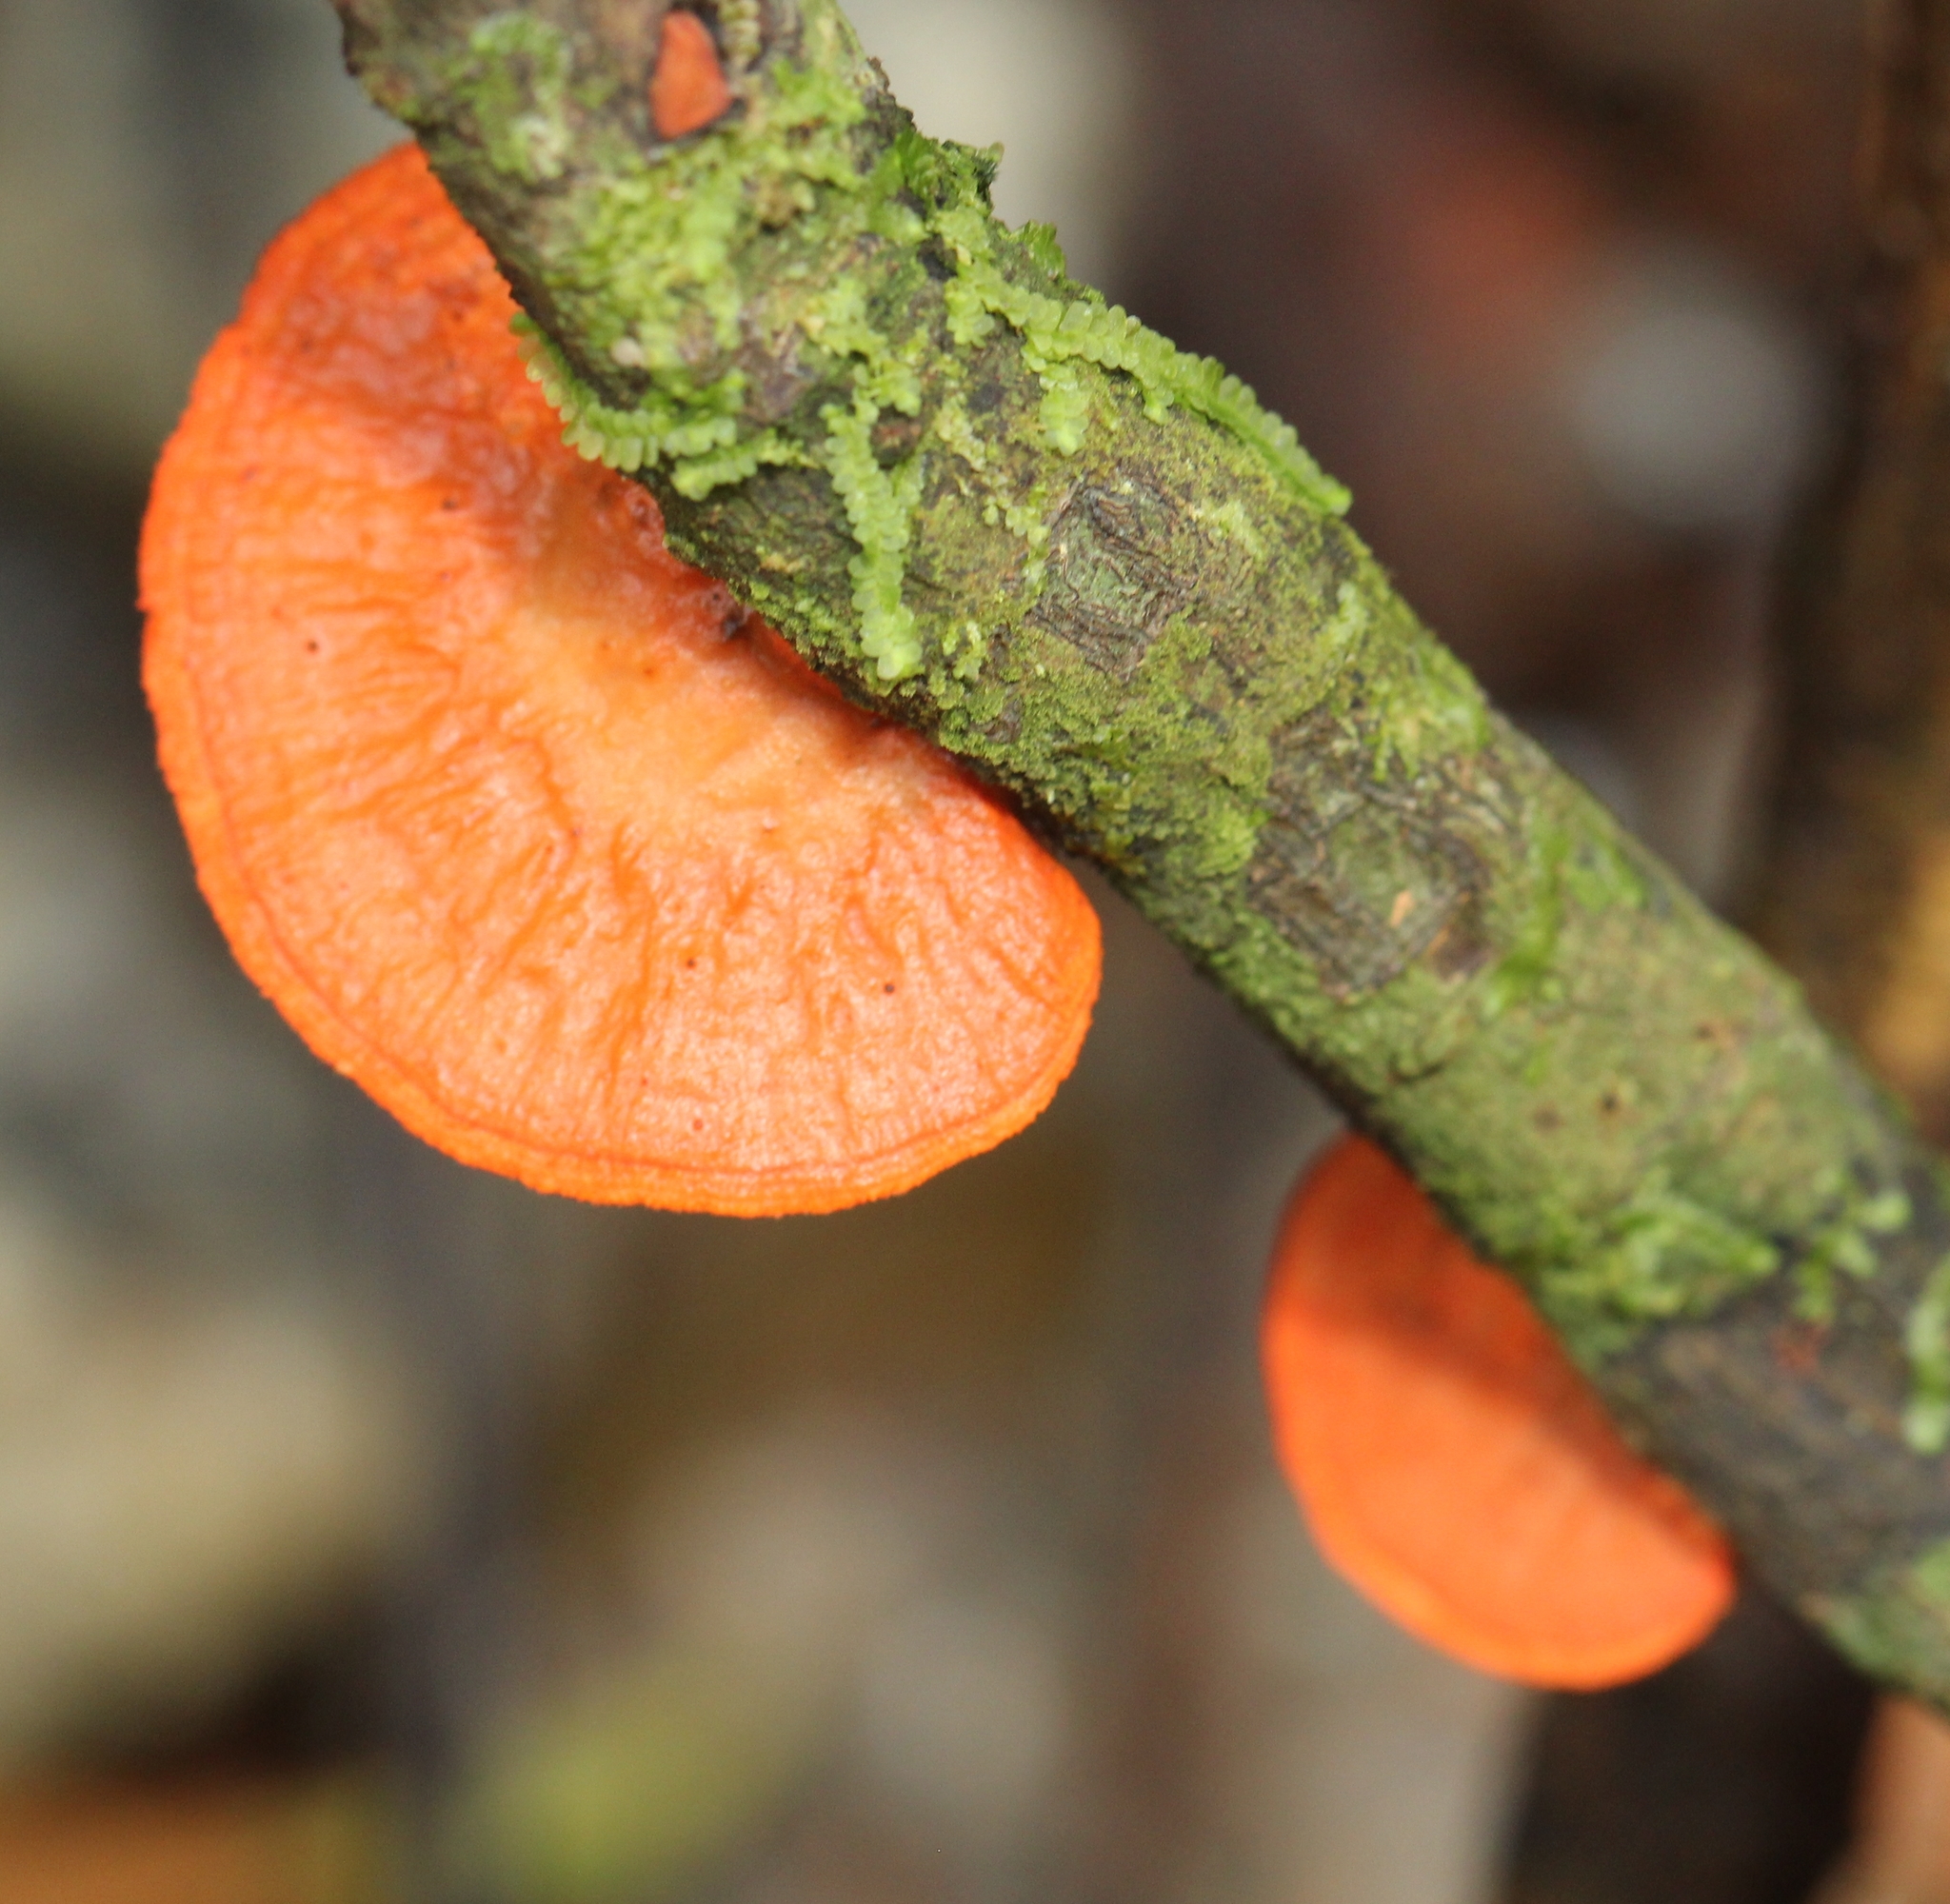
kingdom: Fungi
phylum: Basidiomycota
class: Agaricomycetes
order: Polyporales
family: Polyporaceae
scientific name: Polyporaceae
